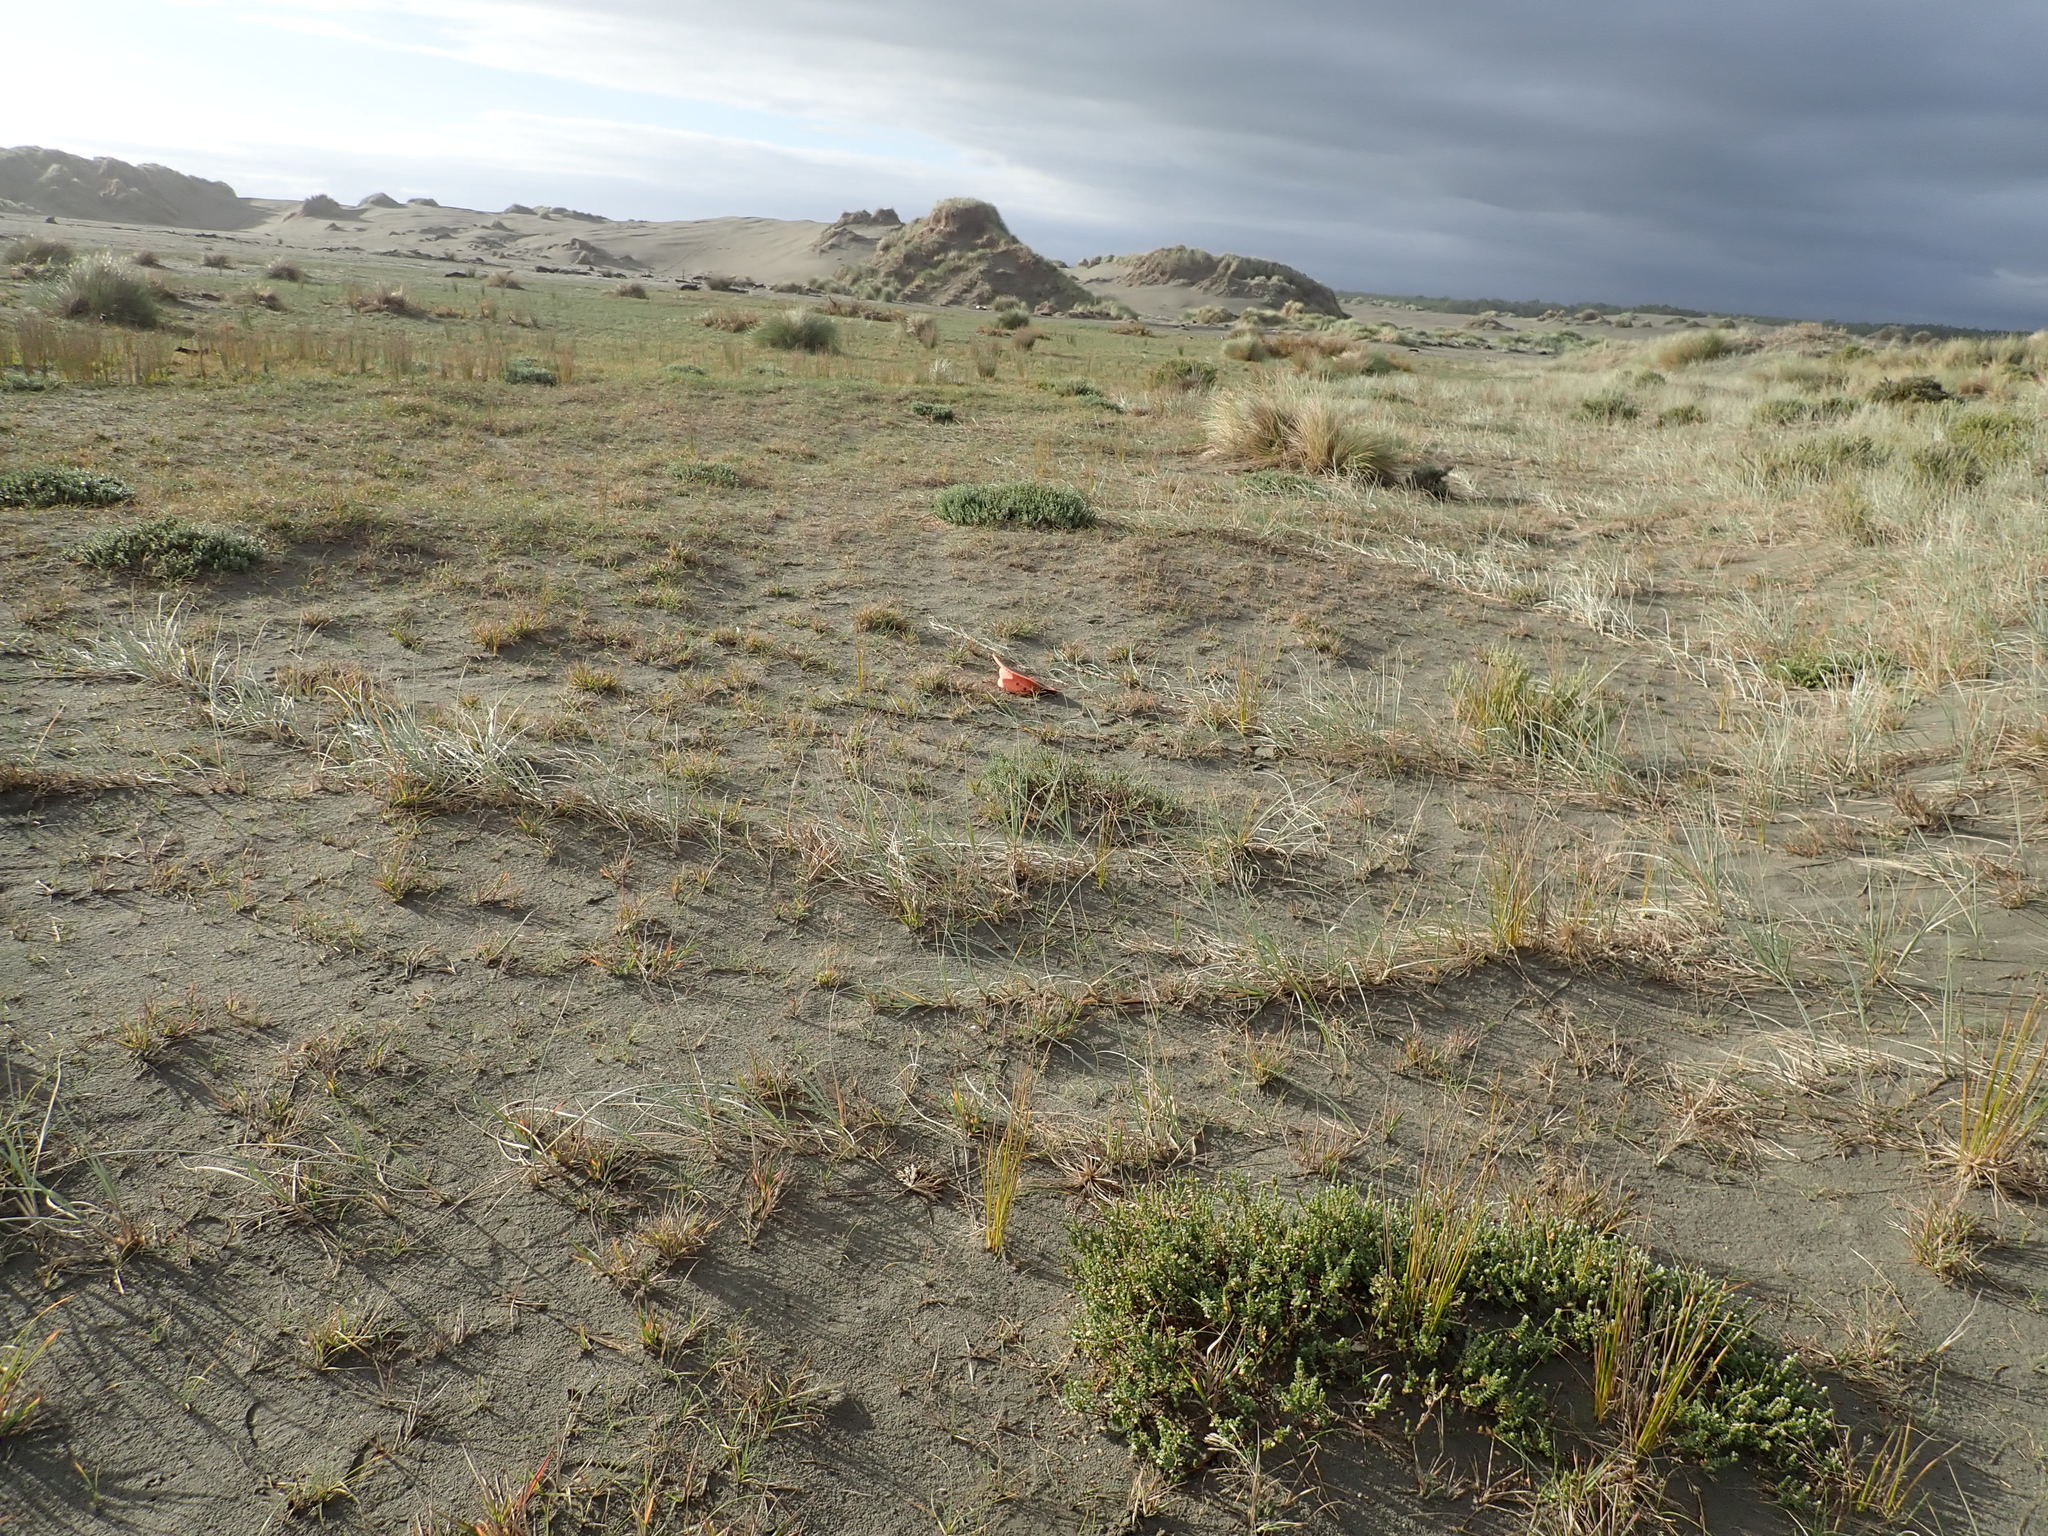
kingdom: Plantae
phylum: Tracheophyta
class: Magnoliopsida
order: Apiales
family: Apiaceae
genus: Lilaeopsis
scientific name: Lilaeopsis novae-zelandiae
